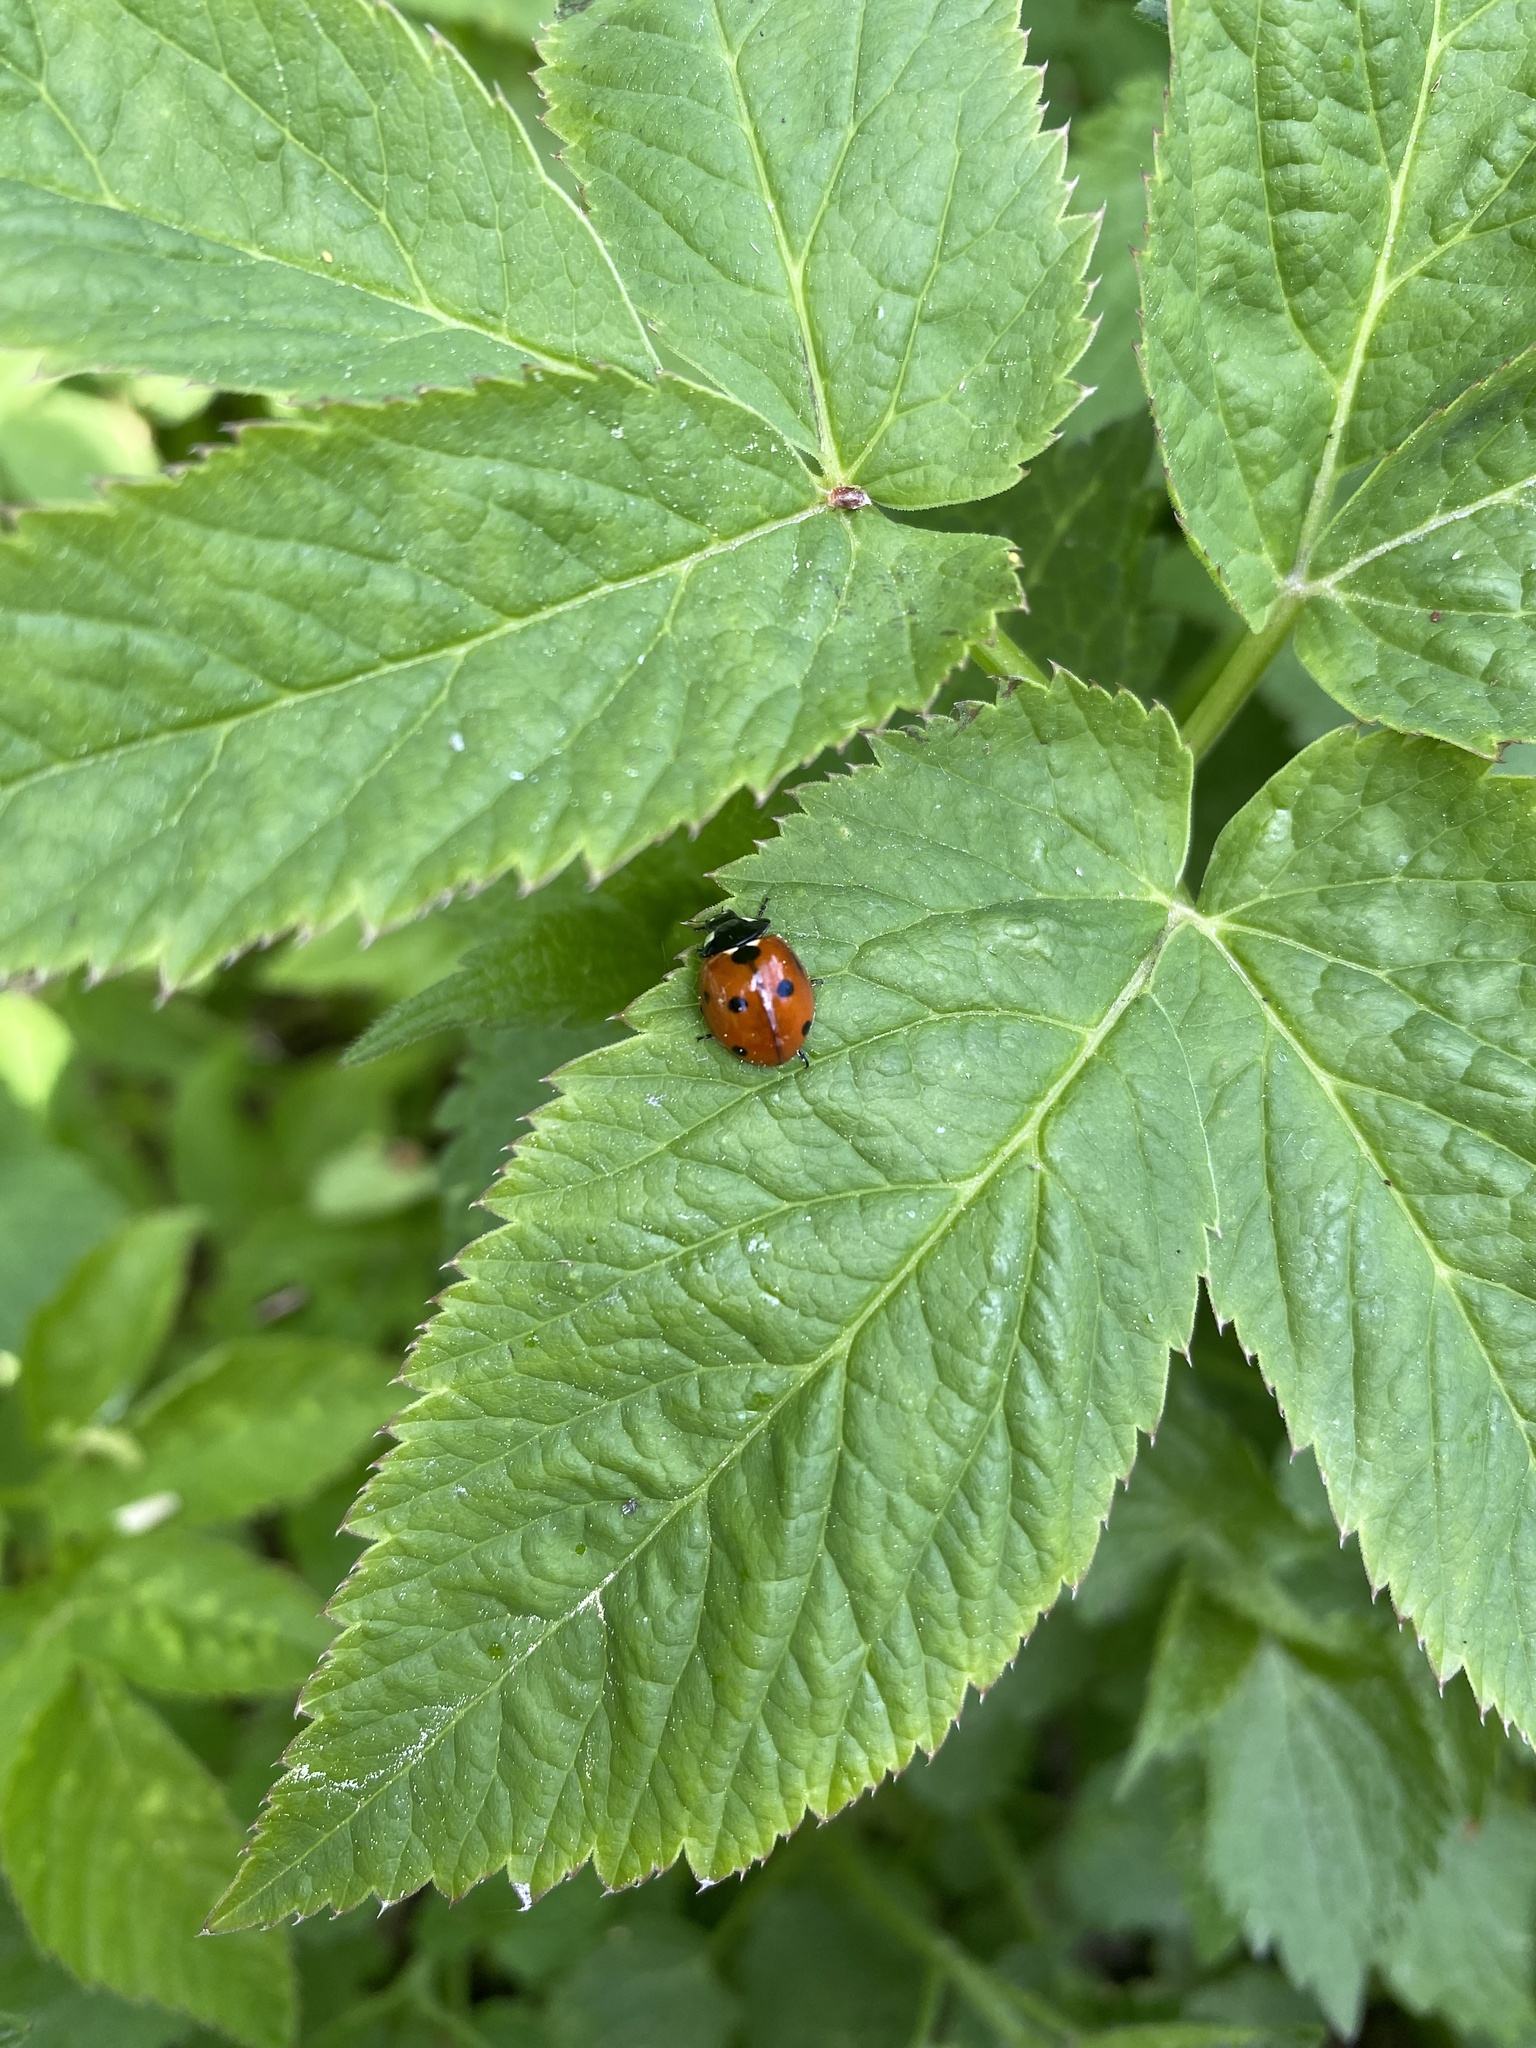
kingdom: Animalia
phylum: Arthropoda
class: Insecta
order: Coleoptera
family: Coccinellidae
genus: Coccinella
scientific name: Coccinella septempunctata
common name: Sevenspotted lady beetle
